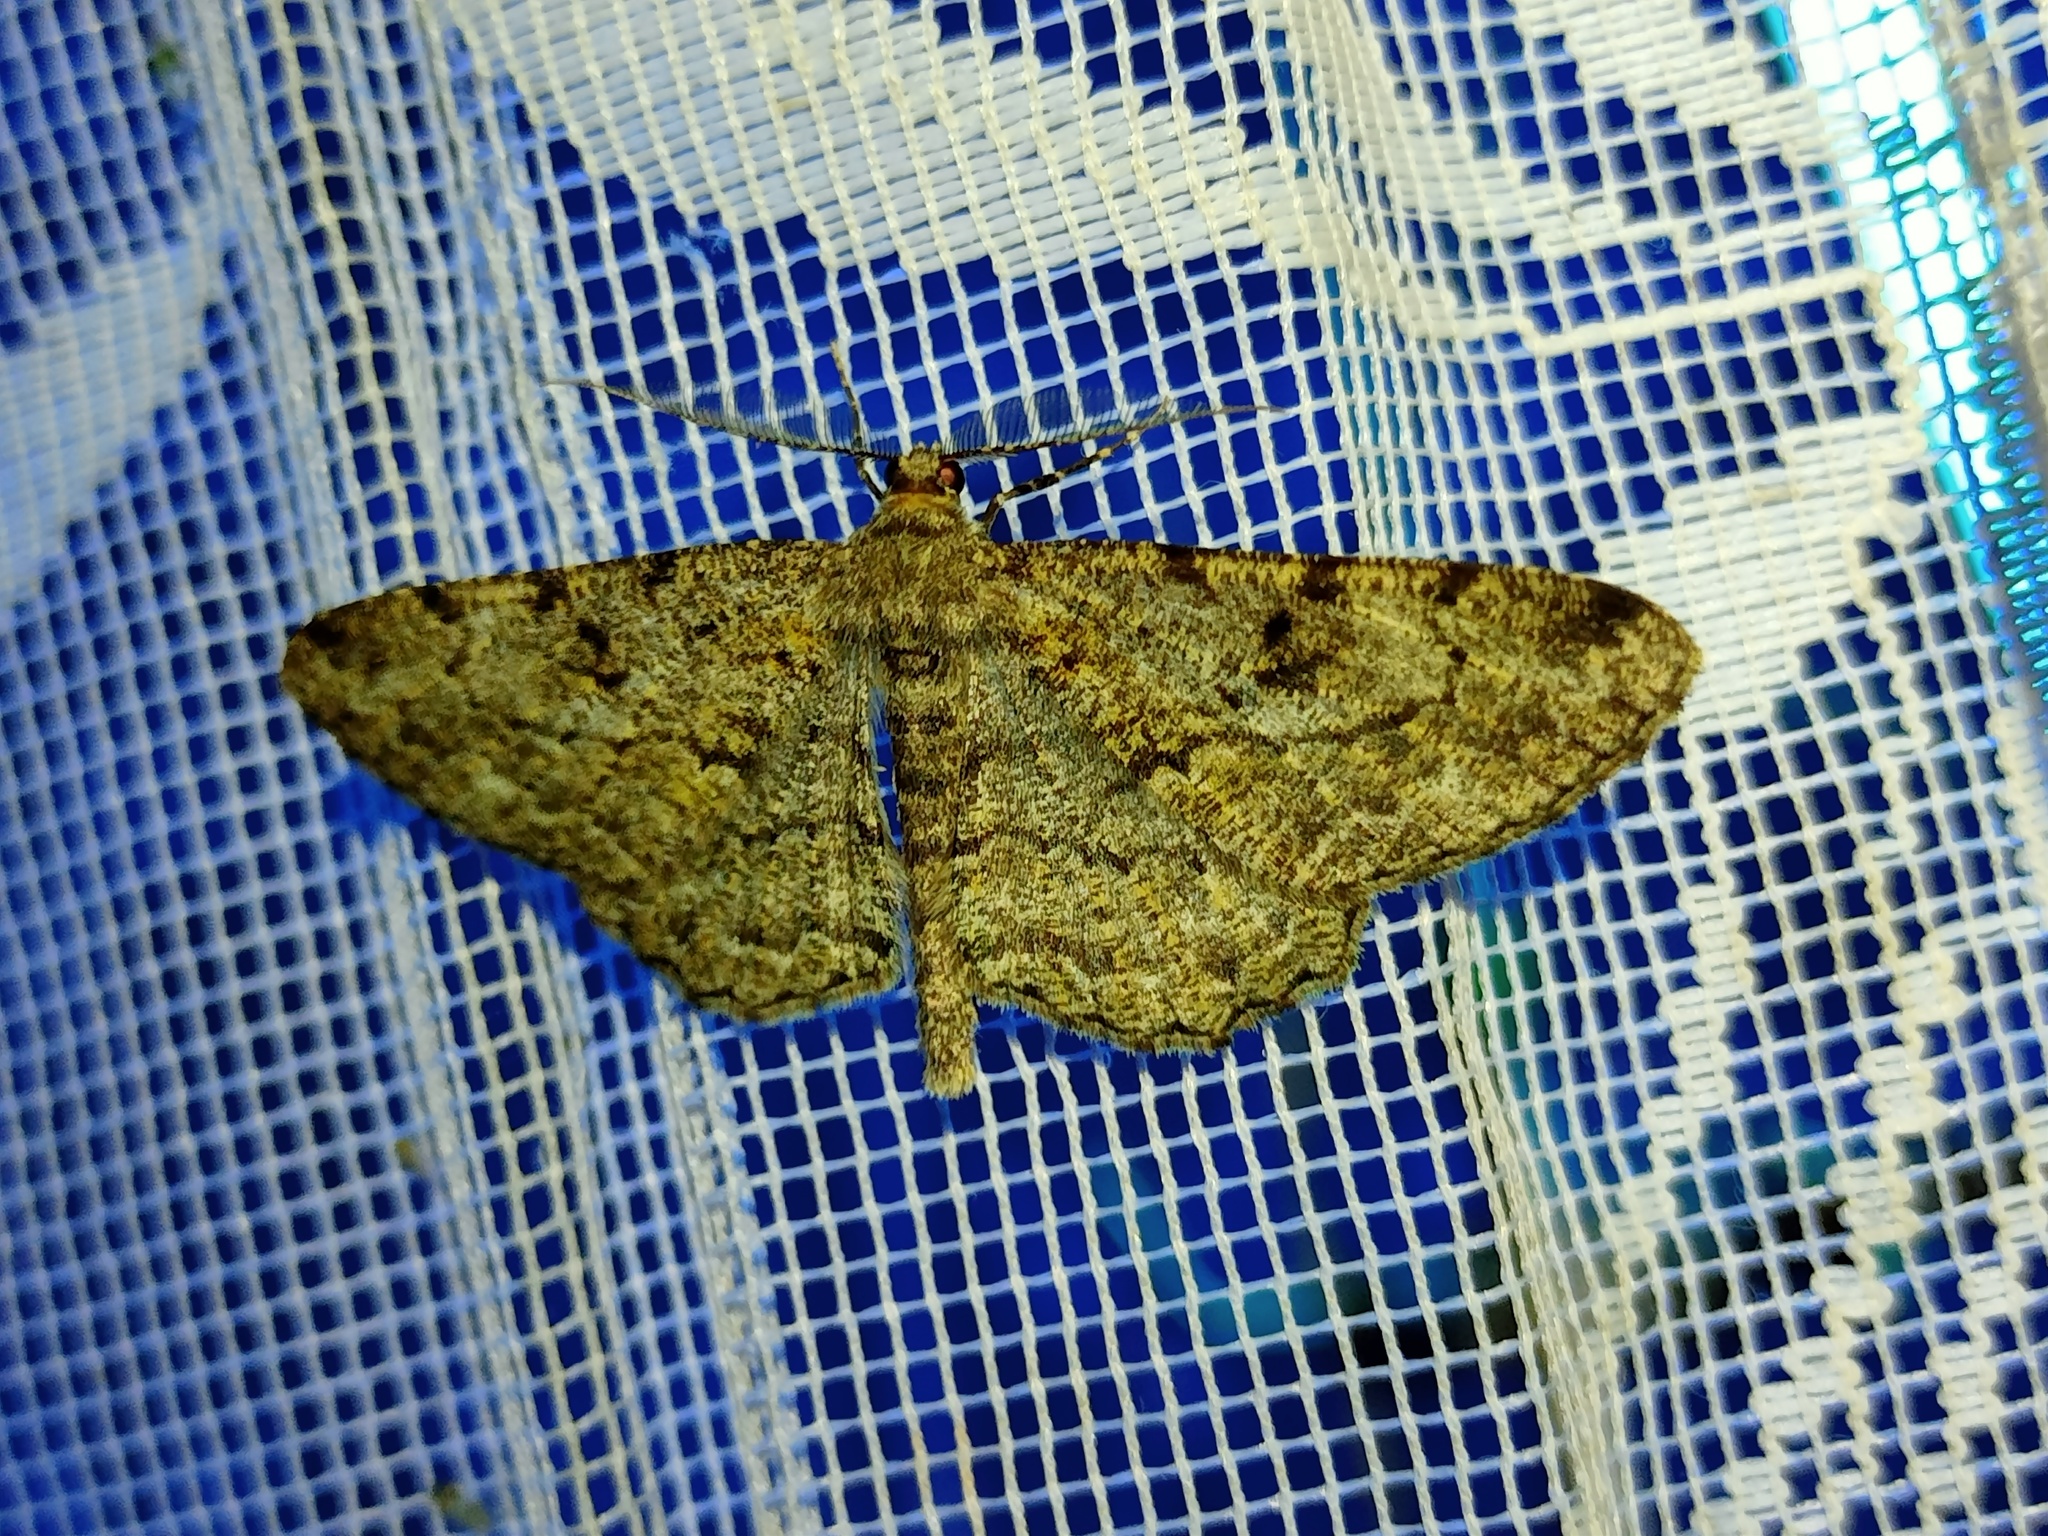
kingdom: Animalia
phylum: Arthropoda
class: Insecta
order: Lepidoptera
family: Geometridae
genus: Peribatodes
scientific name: Peribatodes rhomboidaria
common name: Willow beauty
